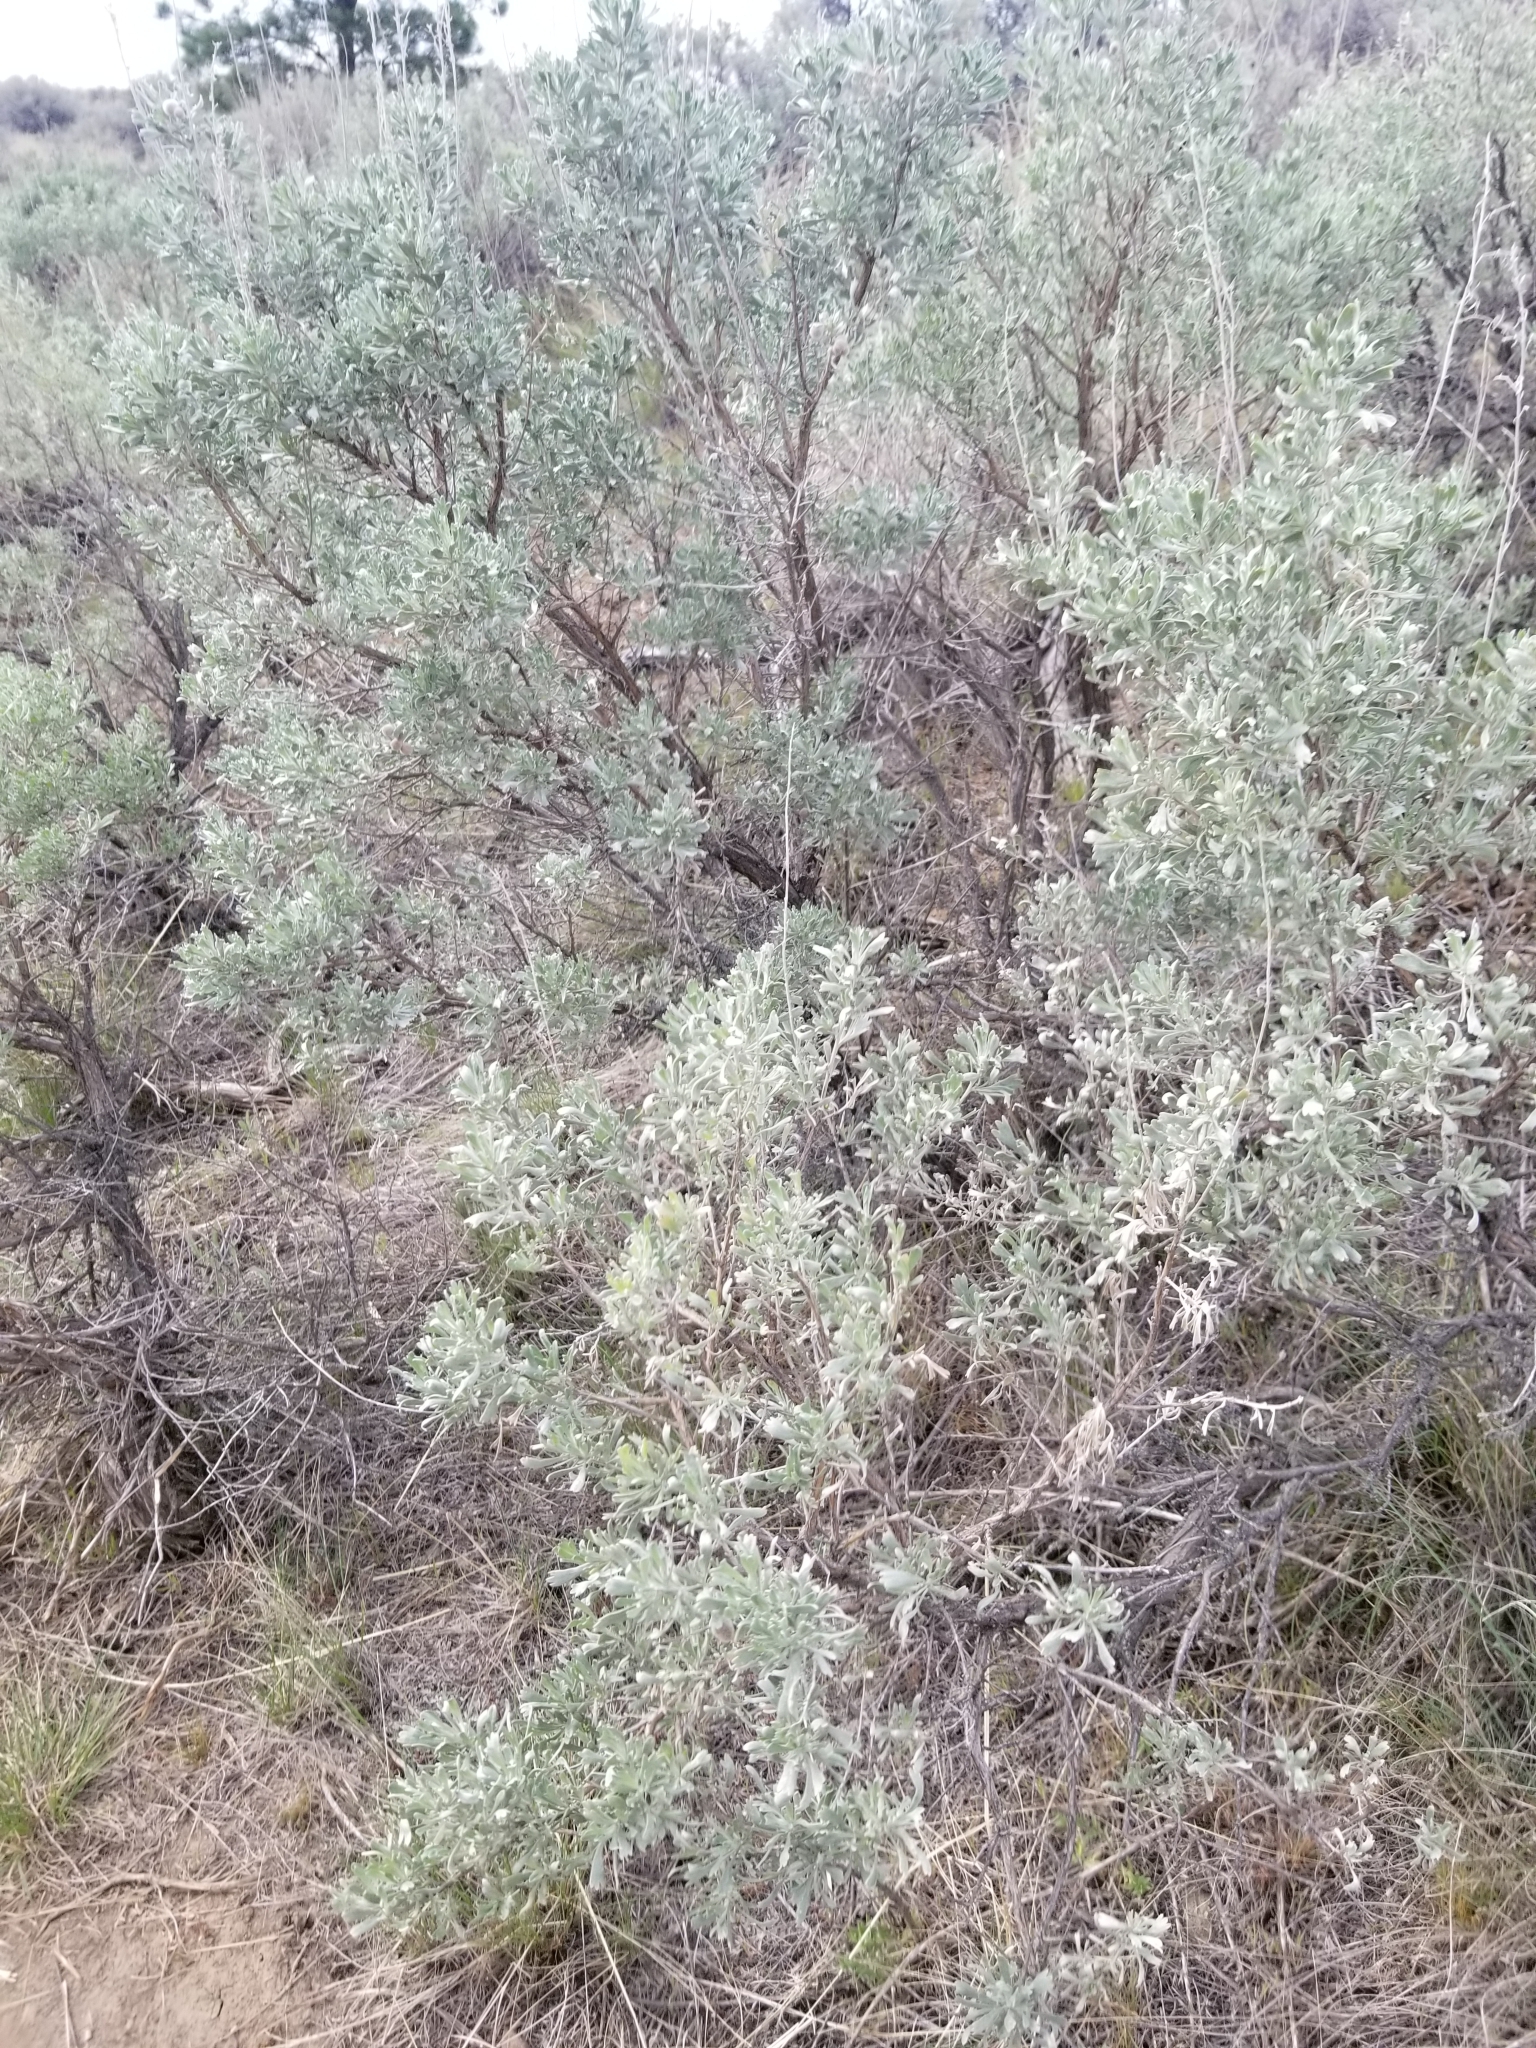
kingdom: Plantae
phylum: Tracheophyta
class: Magnoliopsida
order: Asterales
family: Asteraceae
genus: Artemisia
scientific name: Artemisia tridentata
